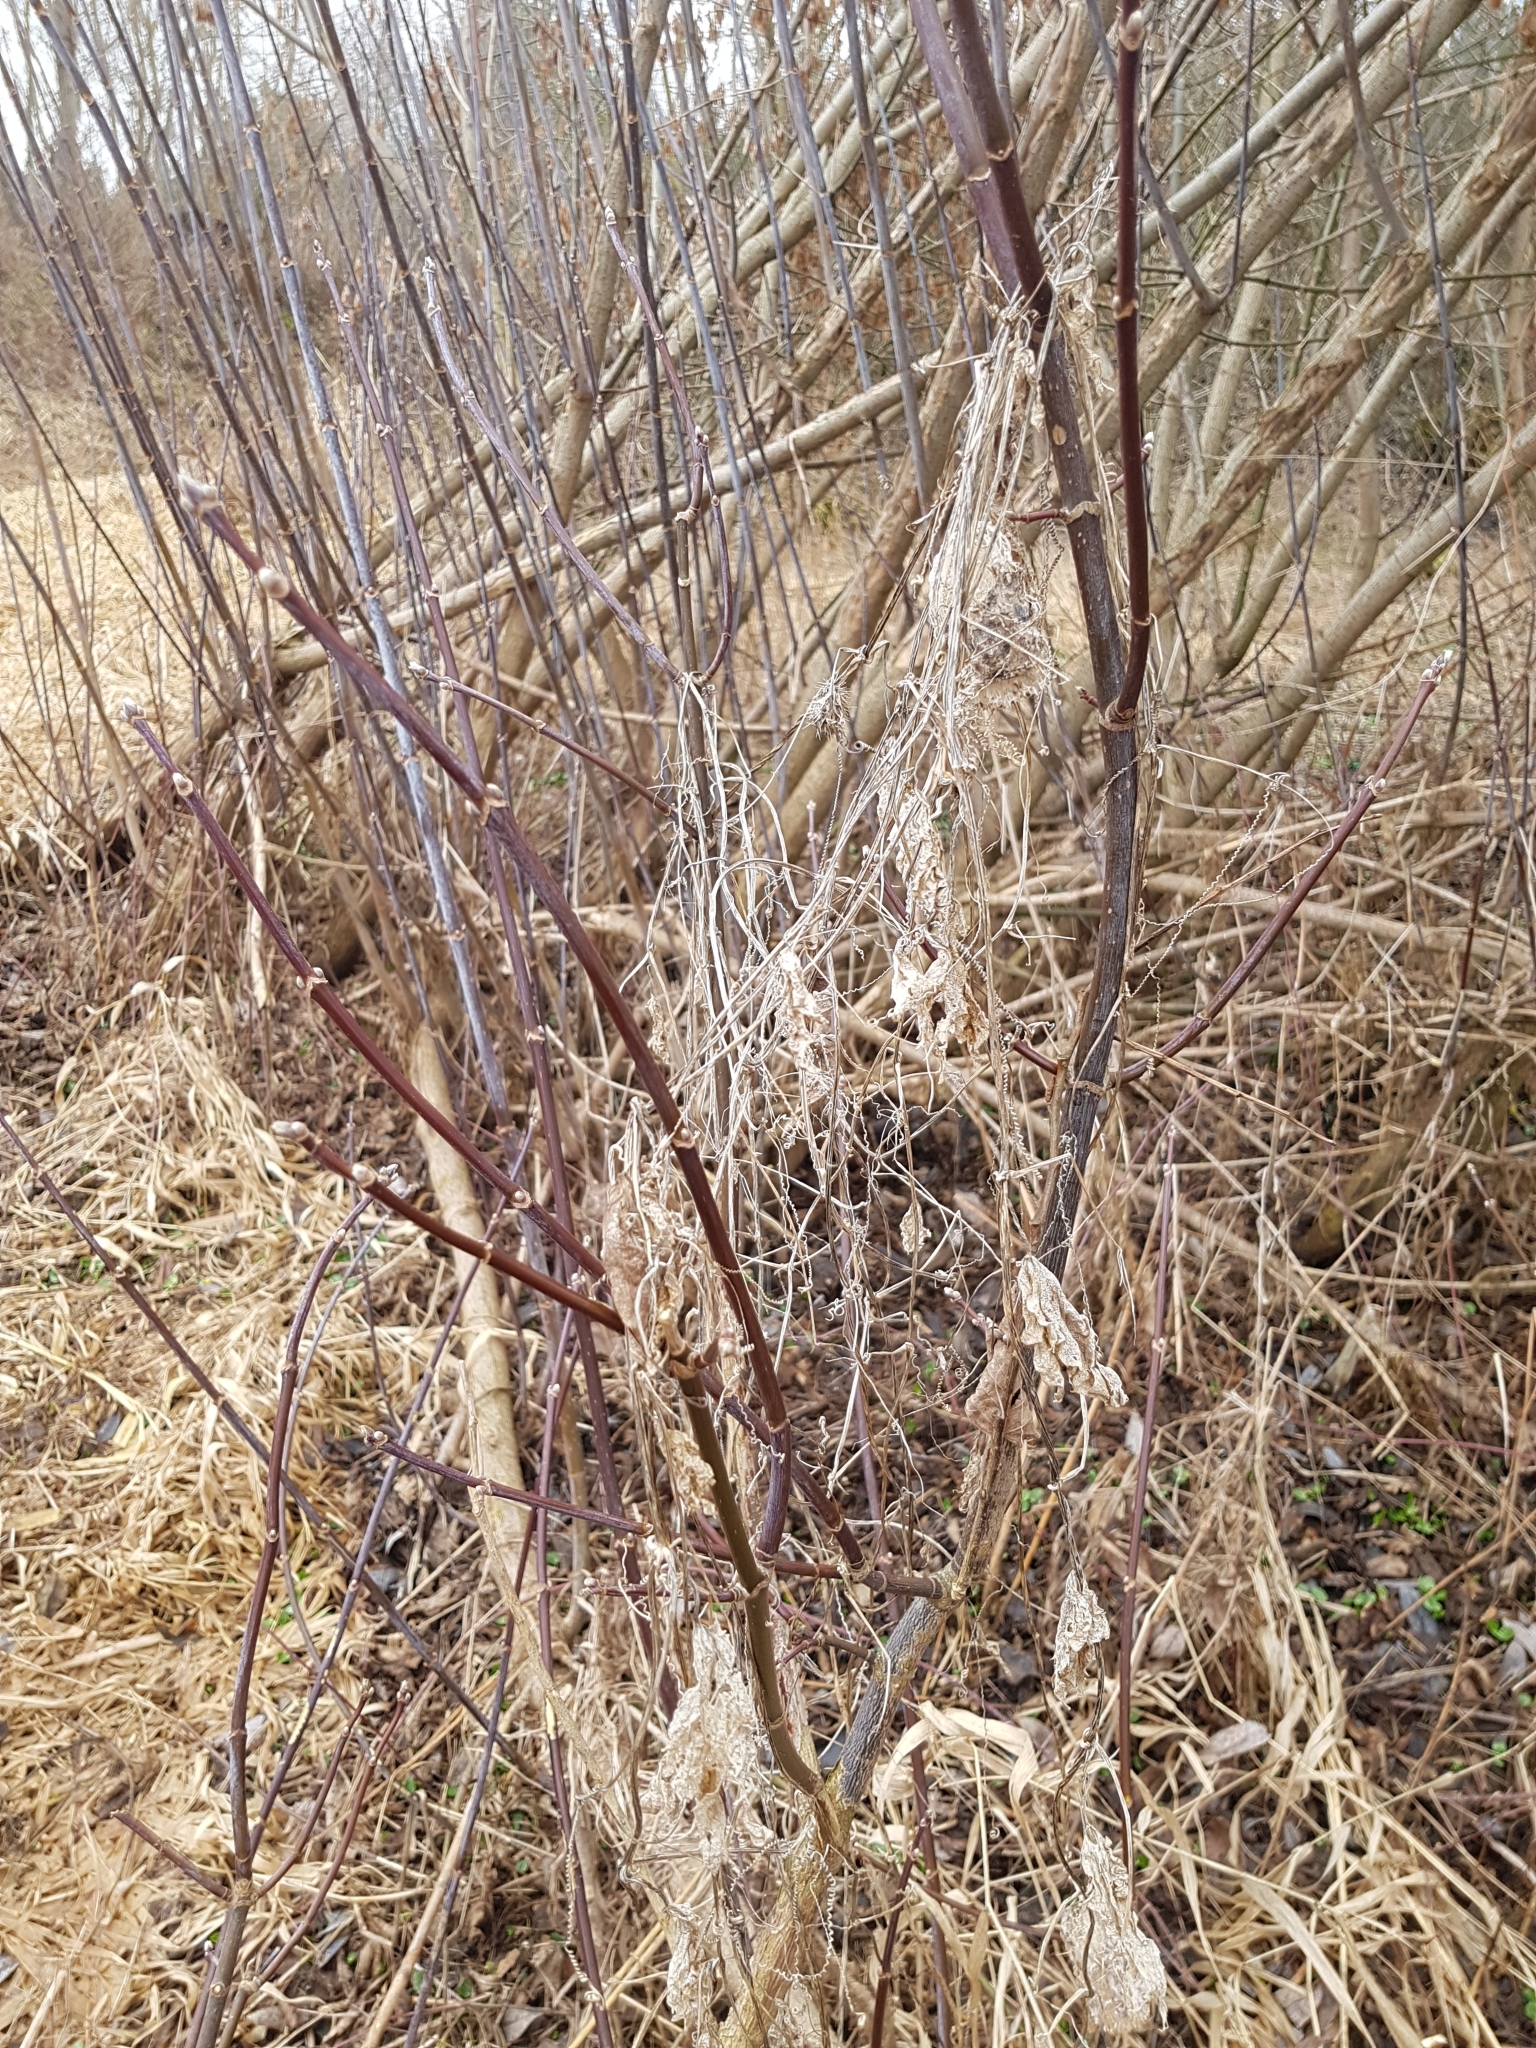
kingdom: Plantae
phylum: Tracheophyta
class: Magnoliopsida
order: Cucurbitales
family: Cucurbitaceae
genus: Echinocystis
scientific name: Echinocystis lobata
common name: Wild cucumber
